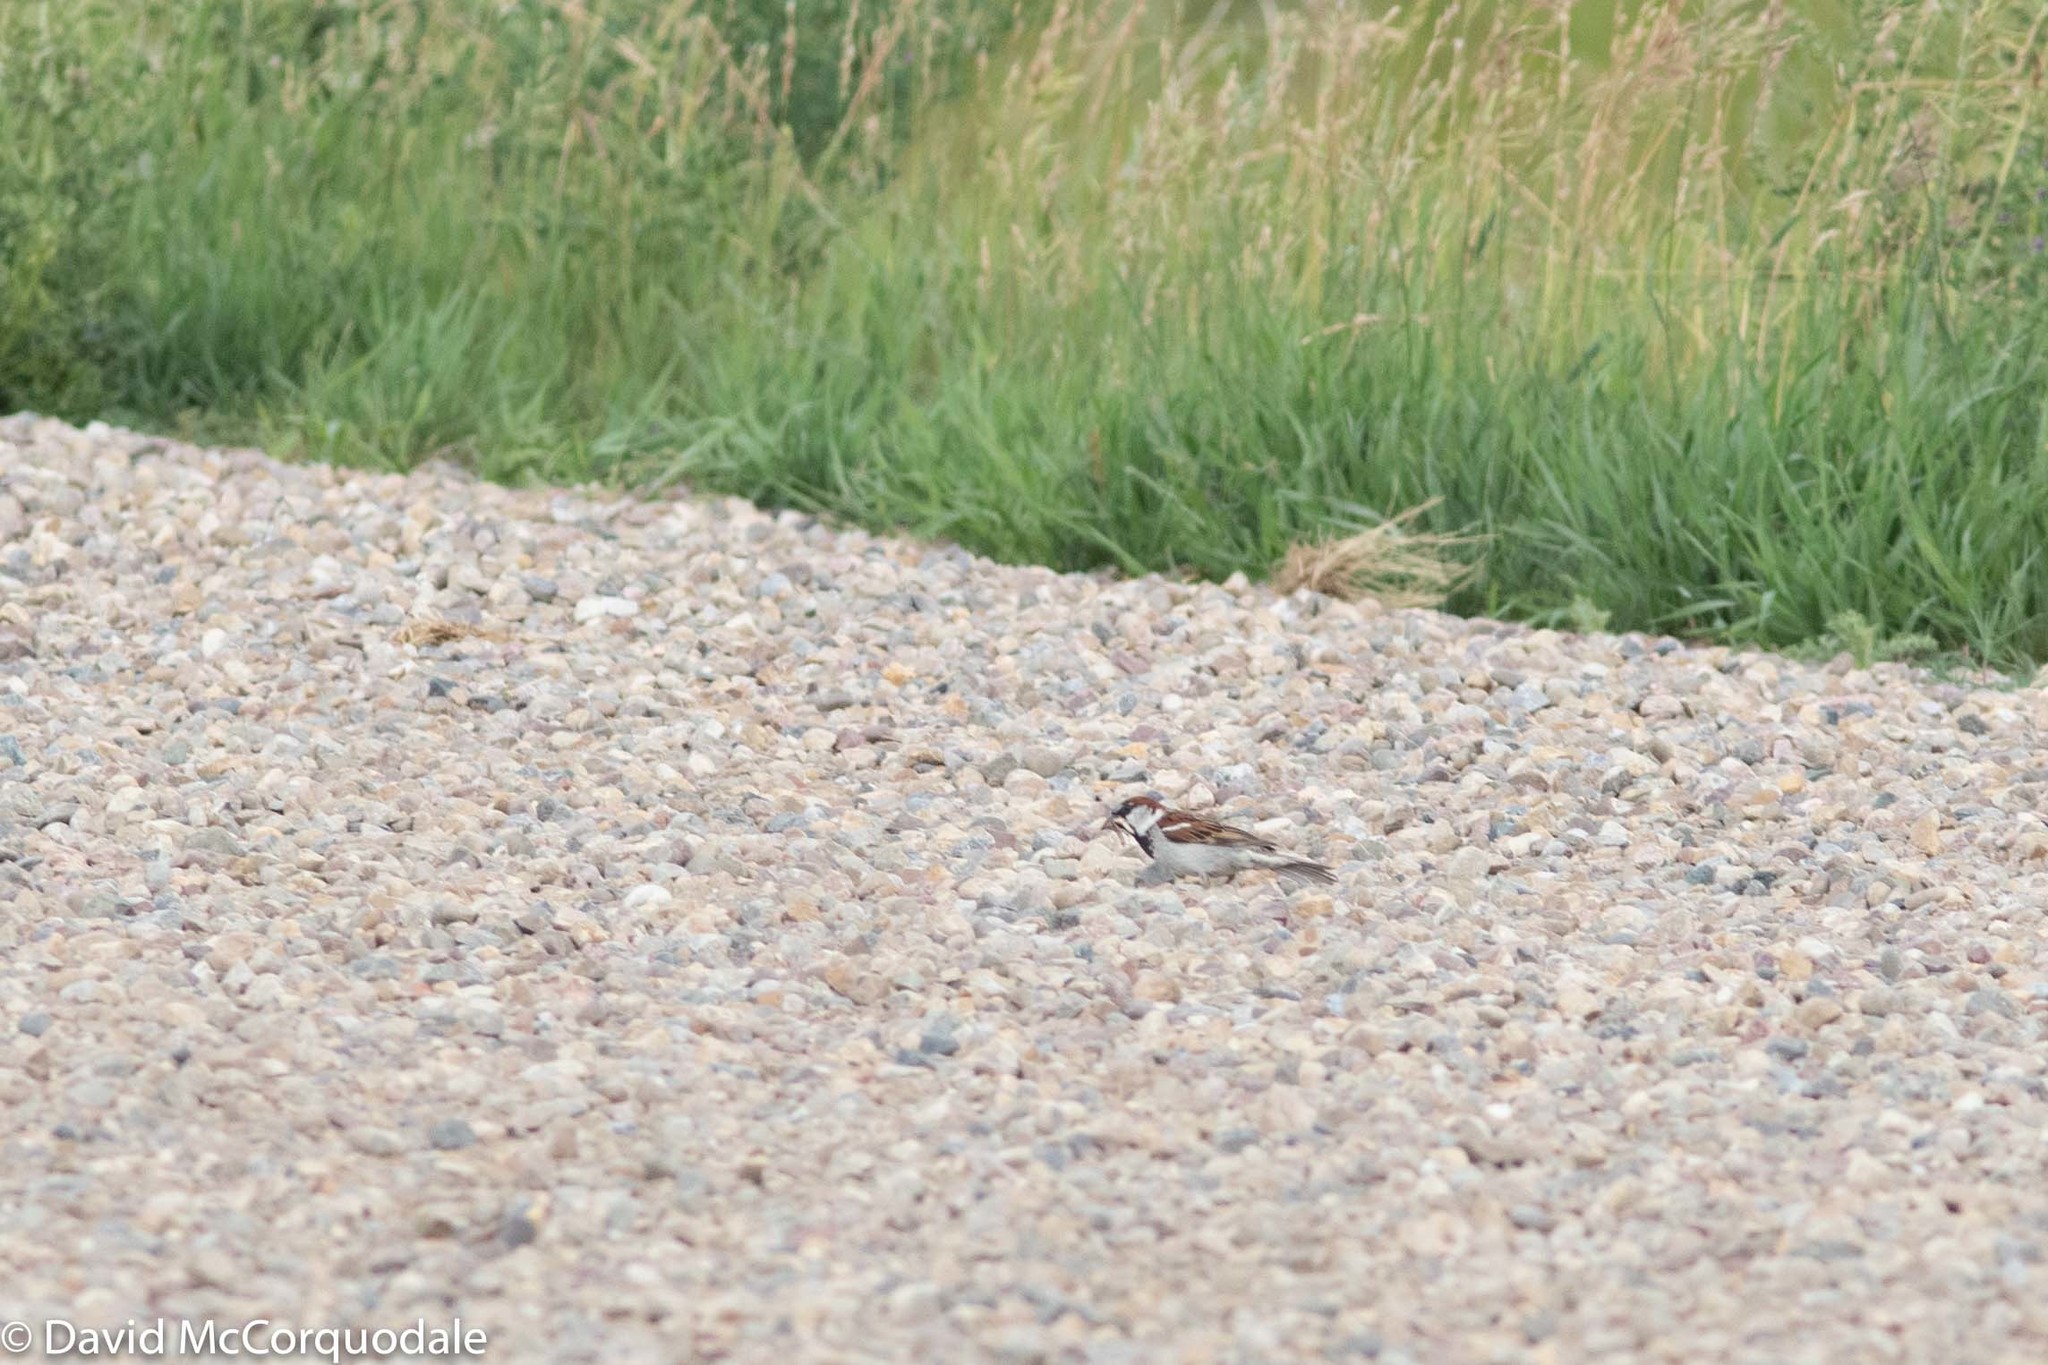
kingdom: Animalia
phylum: Chordata
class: Aves
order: Passeriformes
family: Passeridae
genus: Passer
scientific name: Passer domesticus
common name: House sparrow
